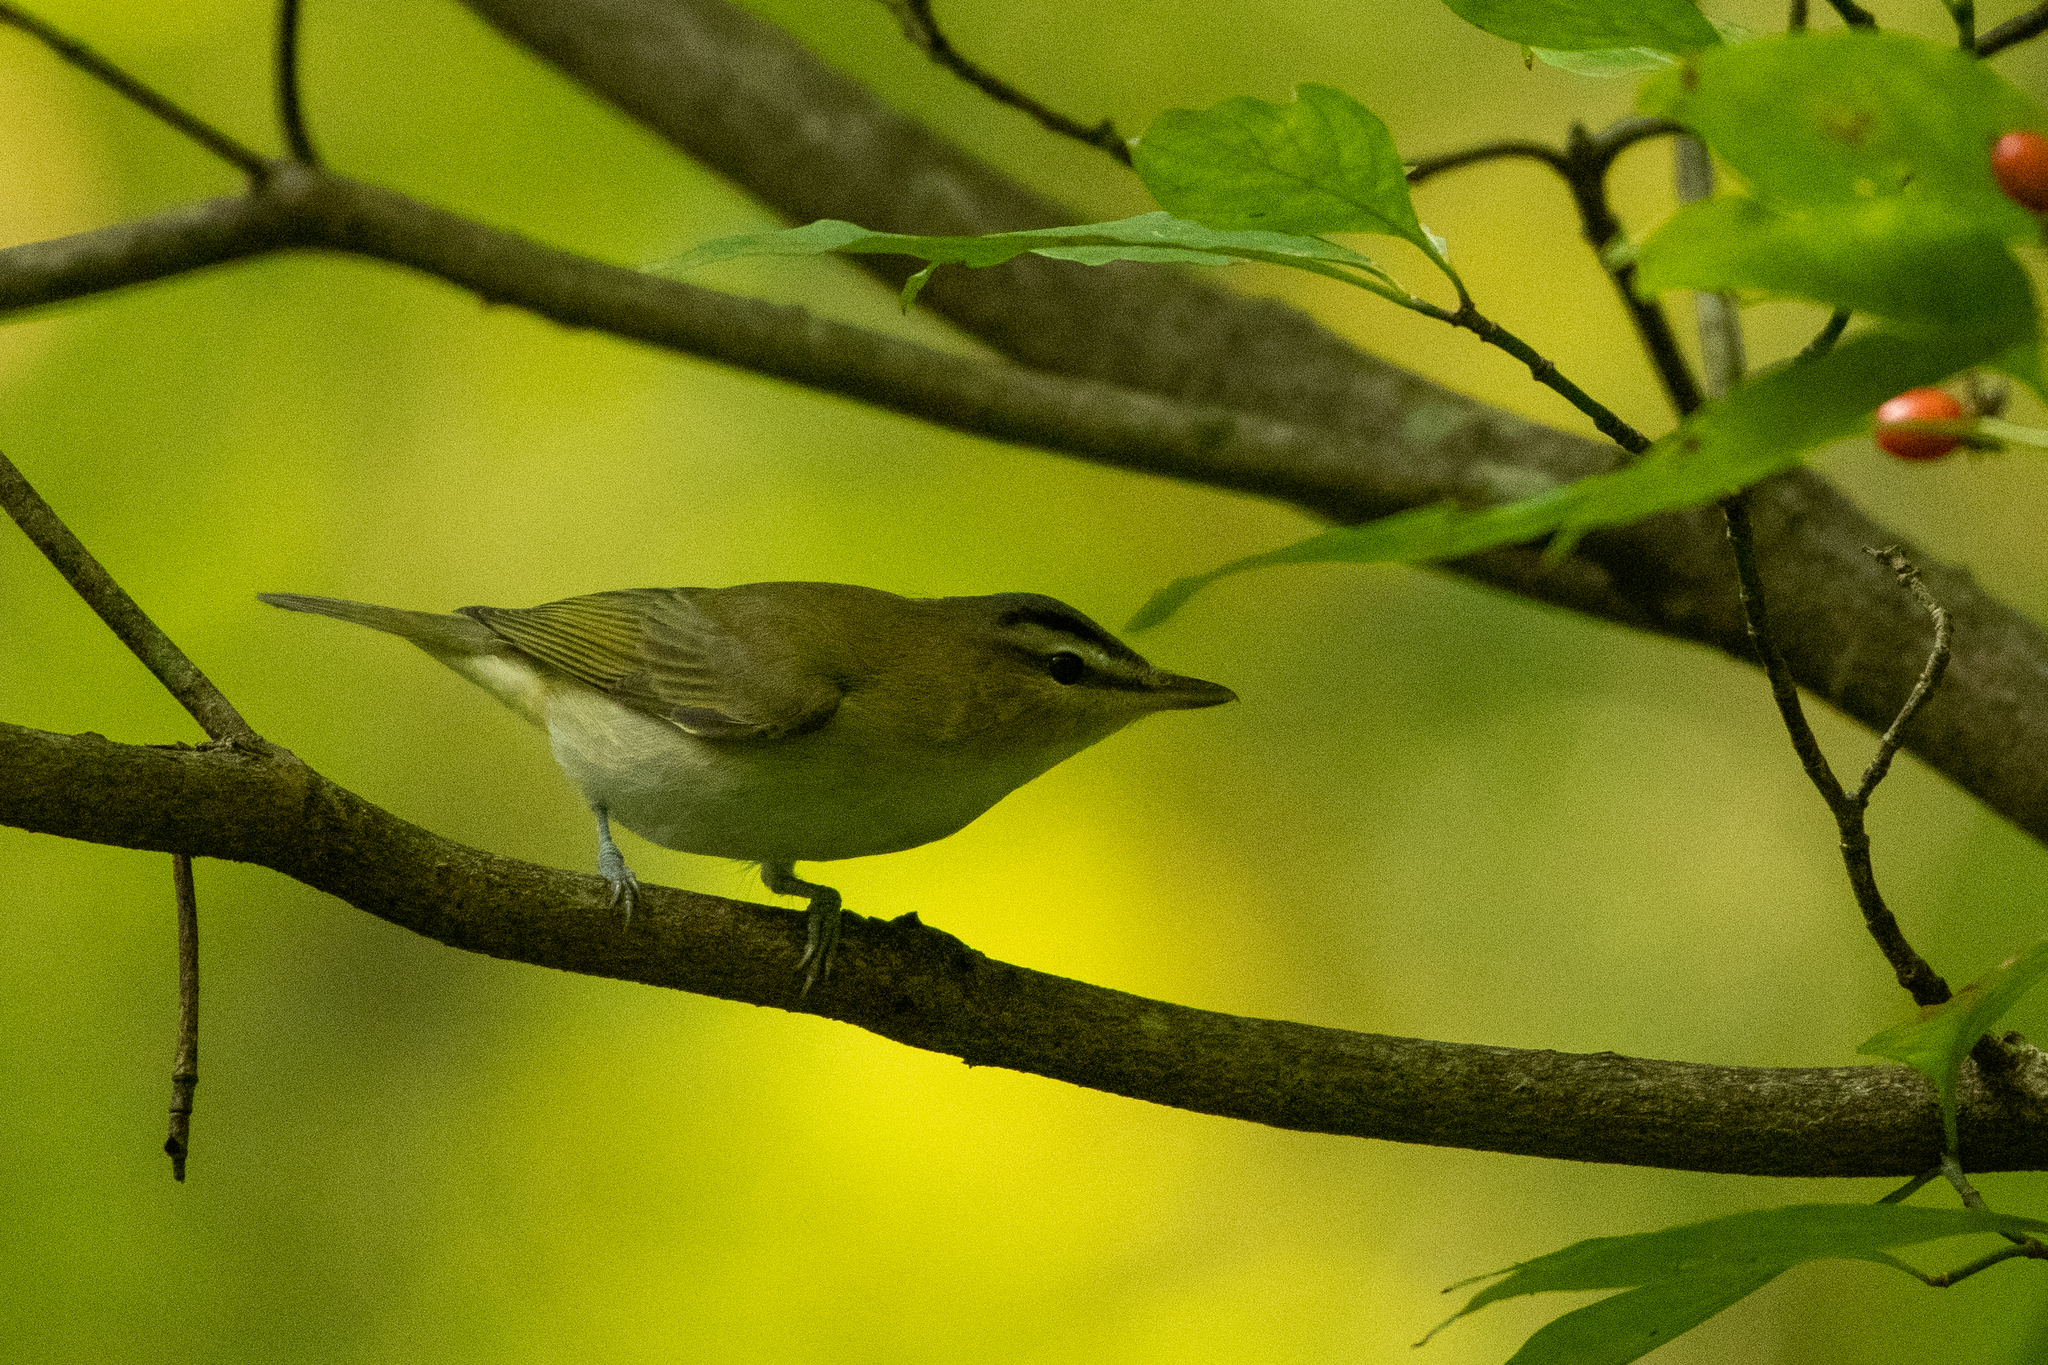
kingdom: Animalia
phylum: Chordata
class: Aves
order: Passeriformes
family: Vireonidae
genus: Vireo
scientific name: Vireo olivaceus
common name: Red-eyed vireo
